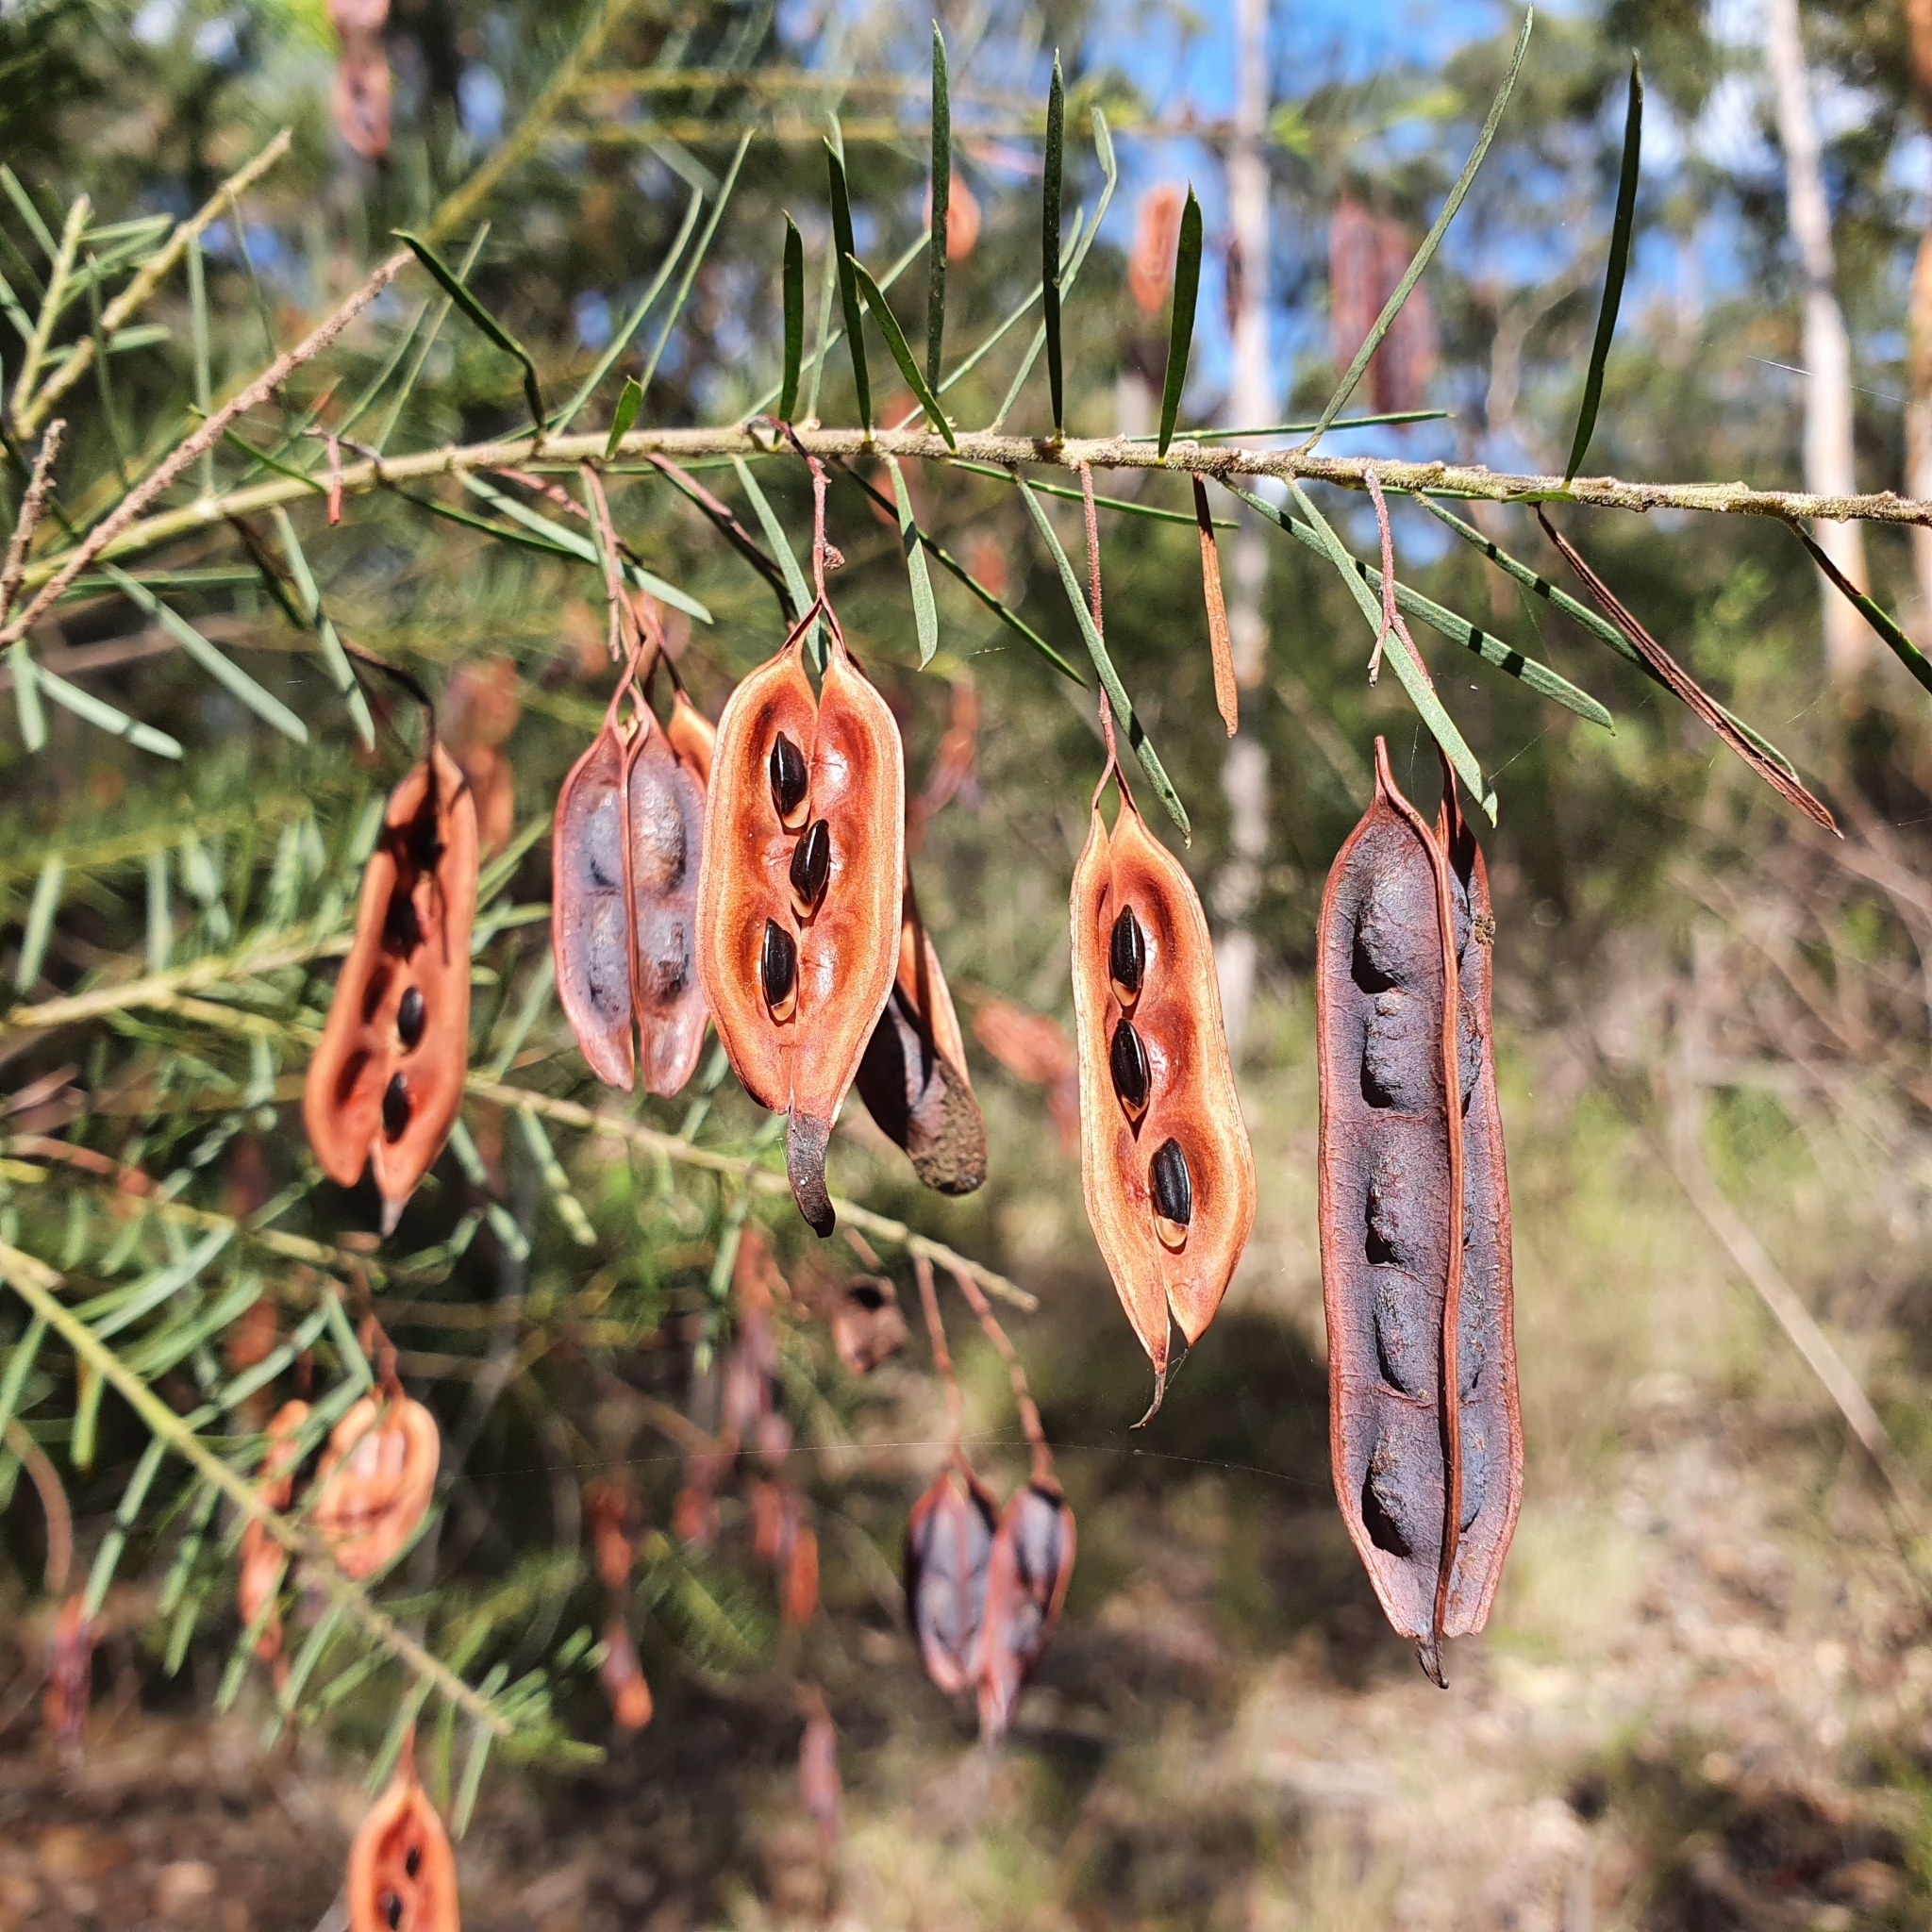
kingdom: Plantae
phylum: Tracheophyta
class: Magnoliopsida
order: Fabales
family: Fabaceae
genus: Acacia
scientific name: Acacia linifolia
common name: White wattle
